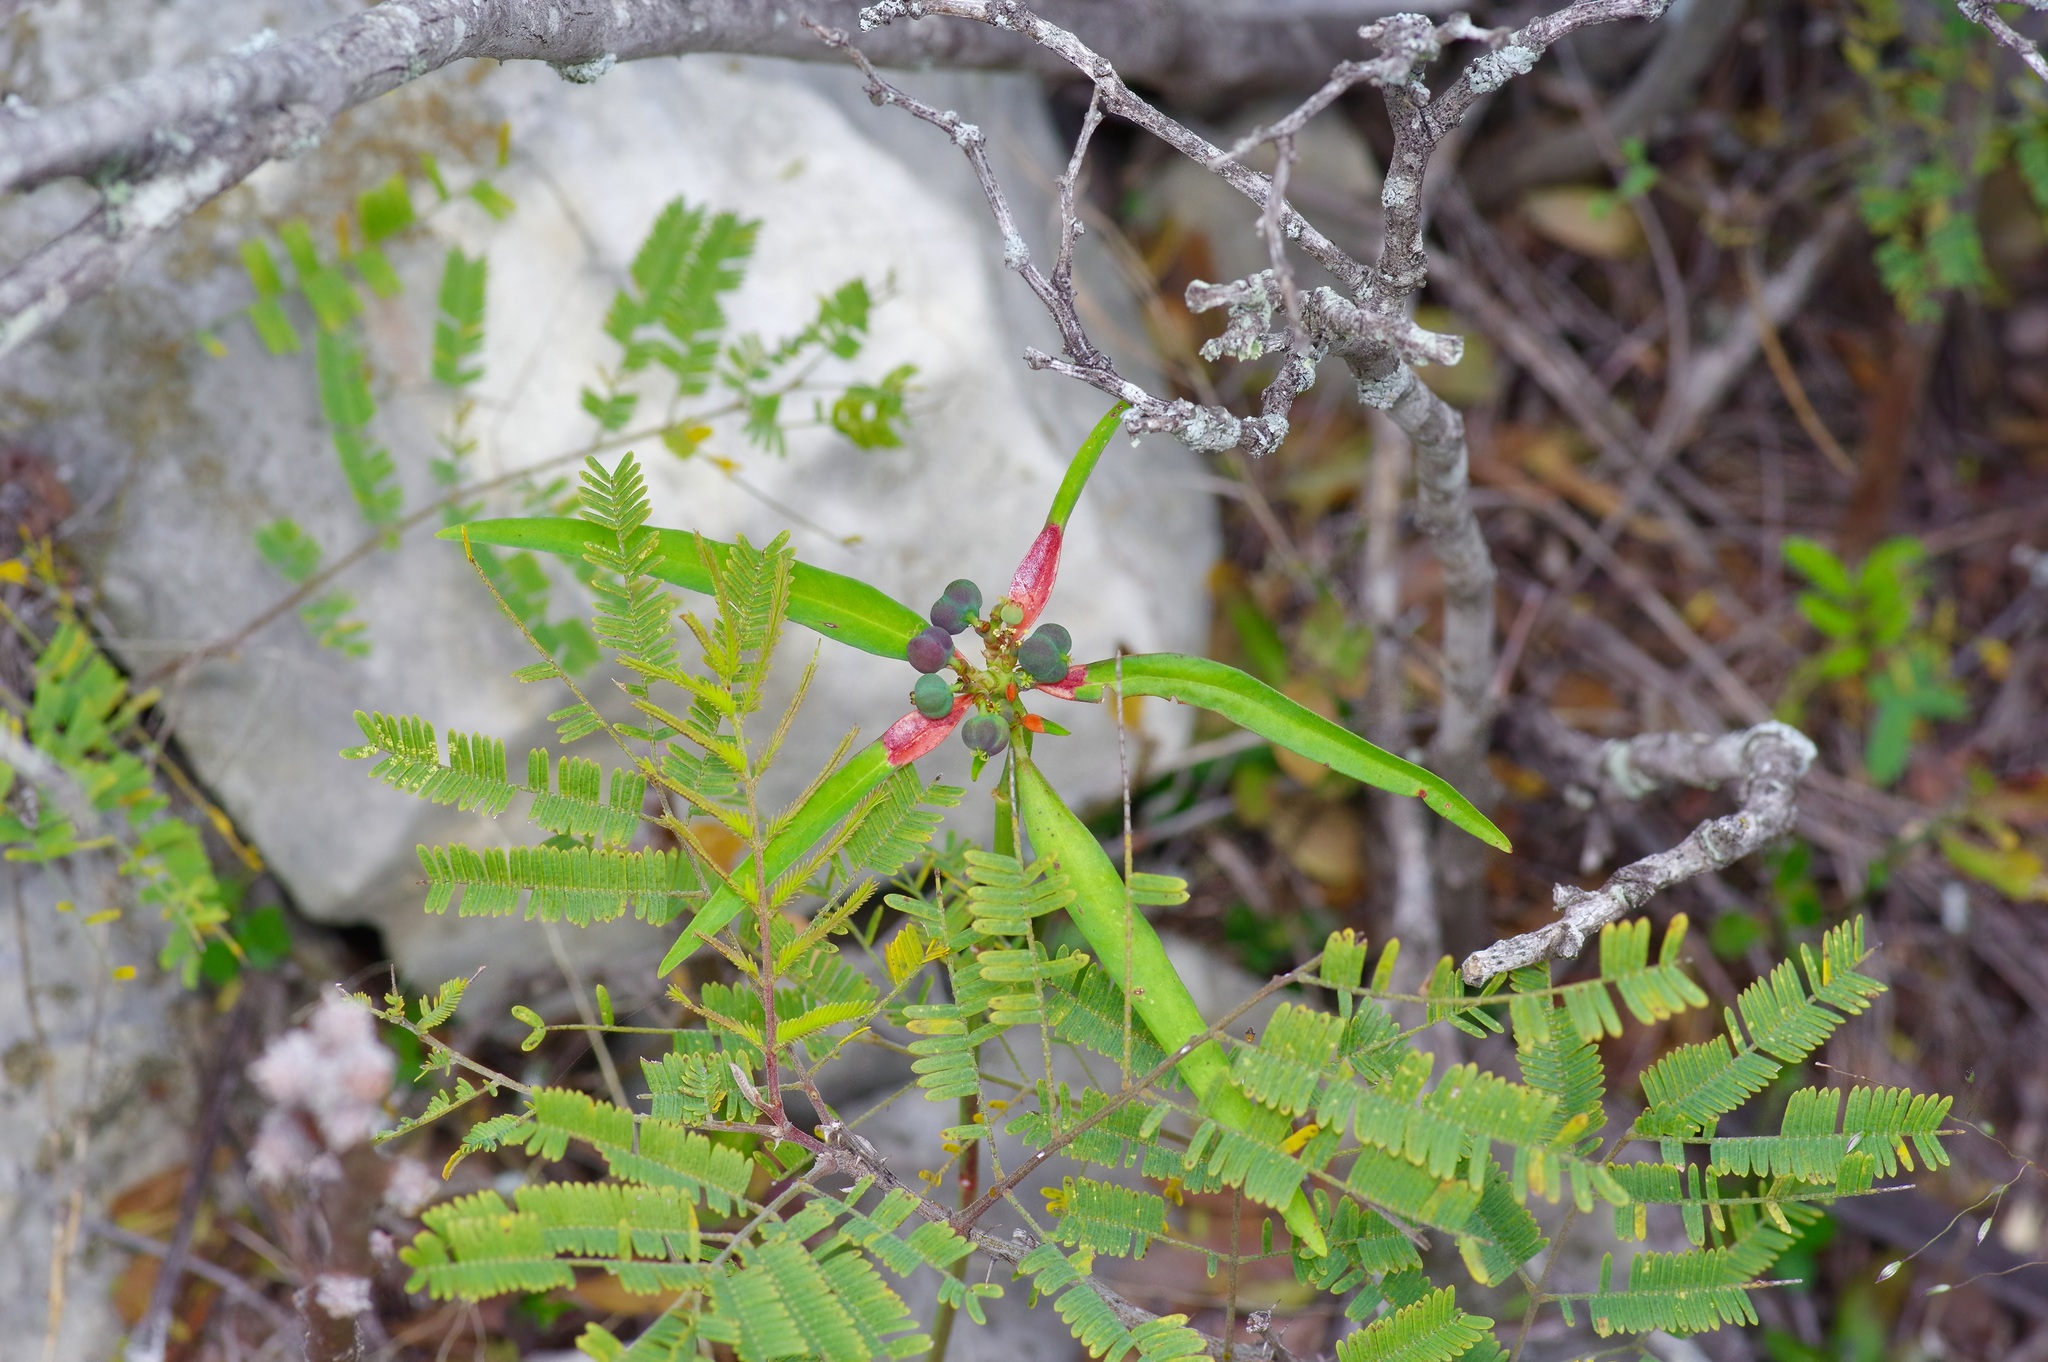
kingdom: Plantae
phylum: Tracheophyta
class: Magnoliopsida
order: Malpighiales
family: Euphorbiaceae
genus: Euphorbia
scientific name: Euphorbia heterophylla
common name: Mexican fireplant
